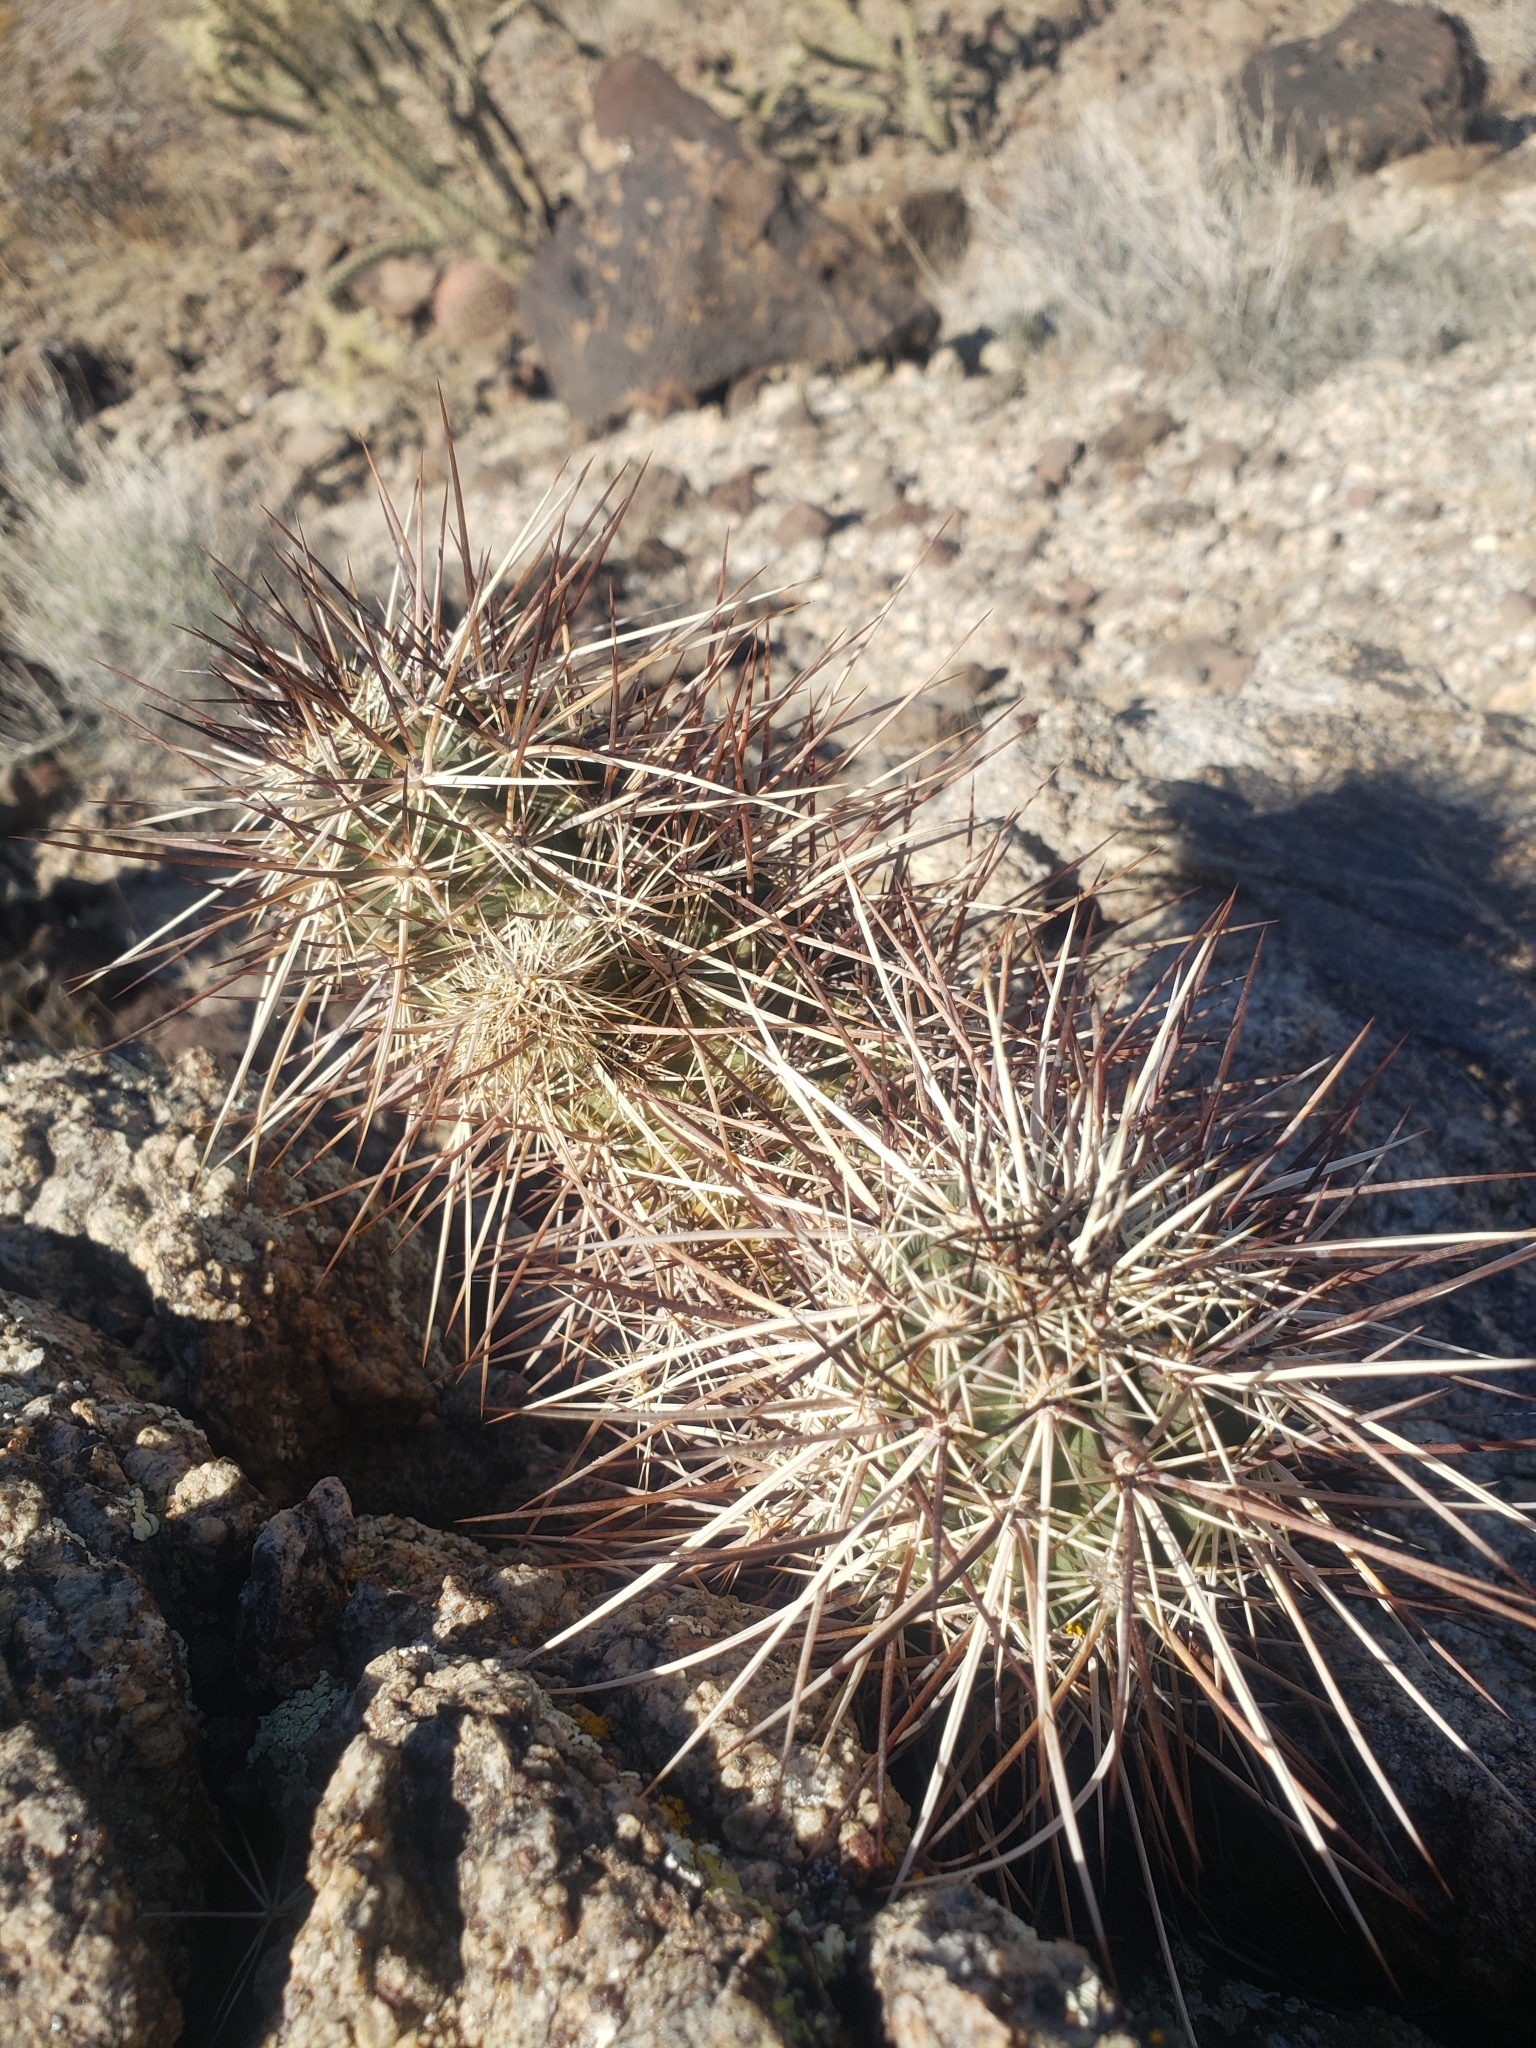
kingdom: Plantae
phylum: Tracheophyta
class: Magnoliopsida
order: Caryophyllales
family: Cactaceae
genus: Echinocereus
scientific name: Echinocereus engelmannii
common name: Engelmann's hedgehog cactus
